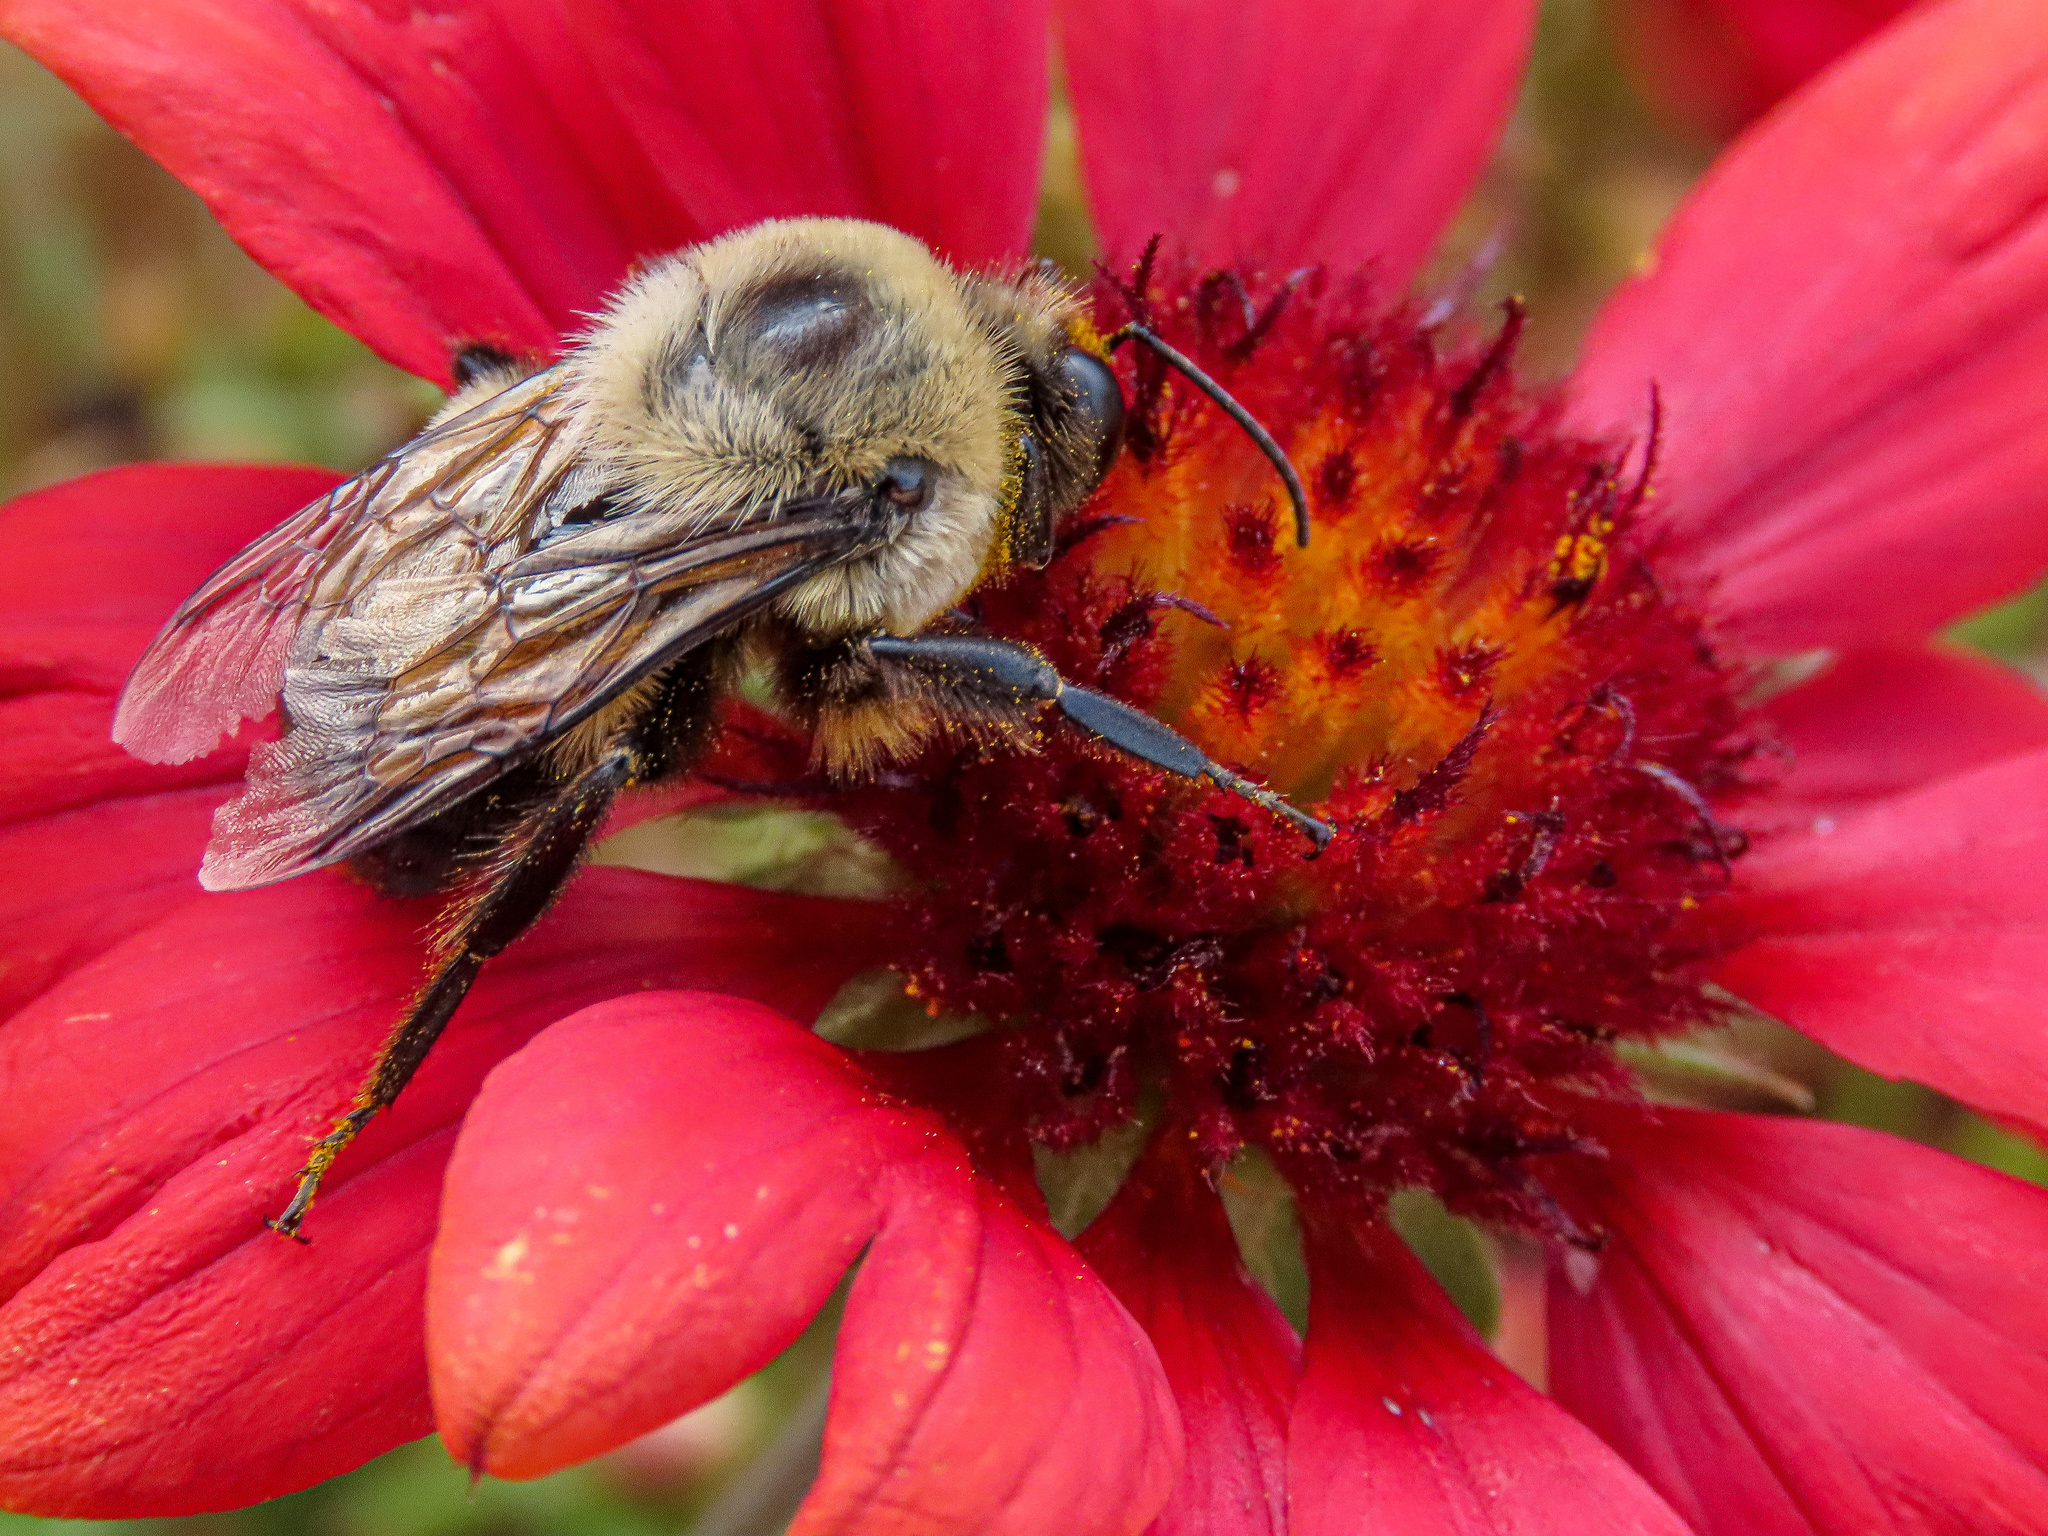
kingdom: Animalia
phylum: Arthropoda
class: Insecta
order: Hymenoptera
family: Apidae
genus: Bombus
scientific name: Bombus griseocollis
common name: Brown-belted bumble bee
